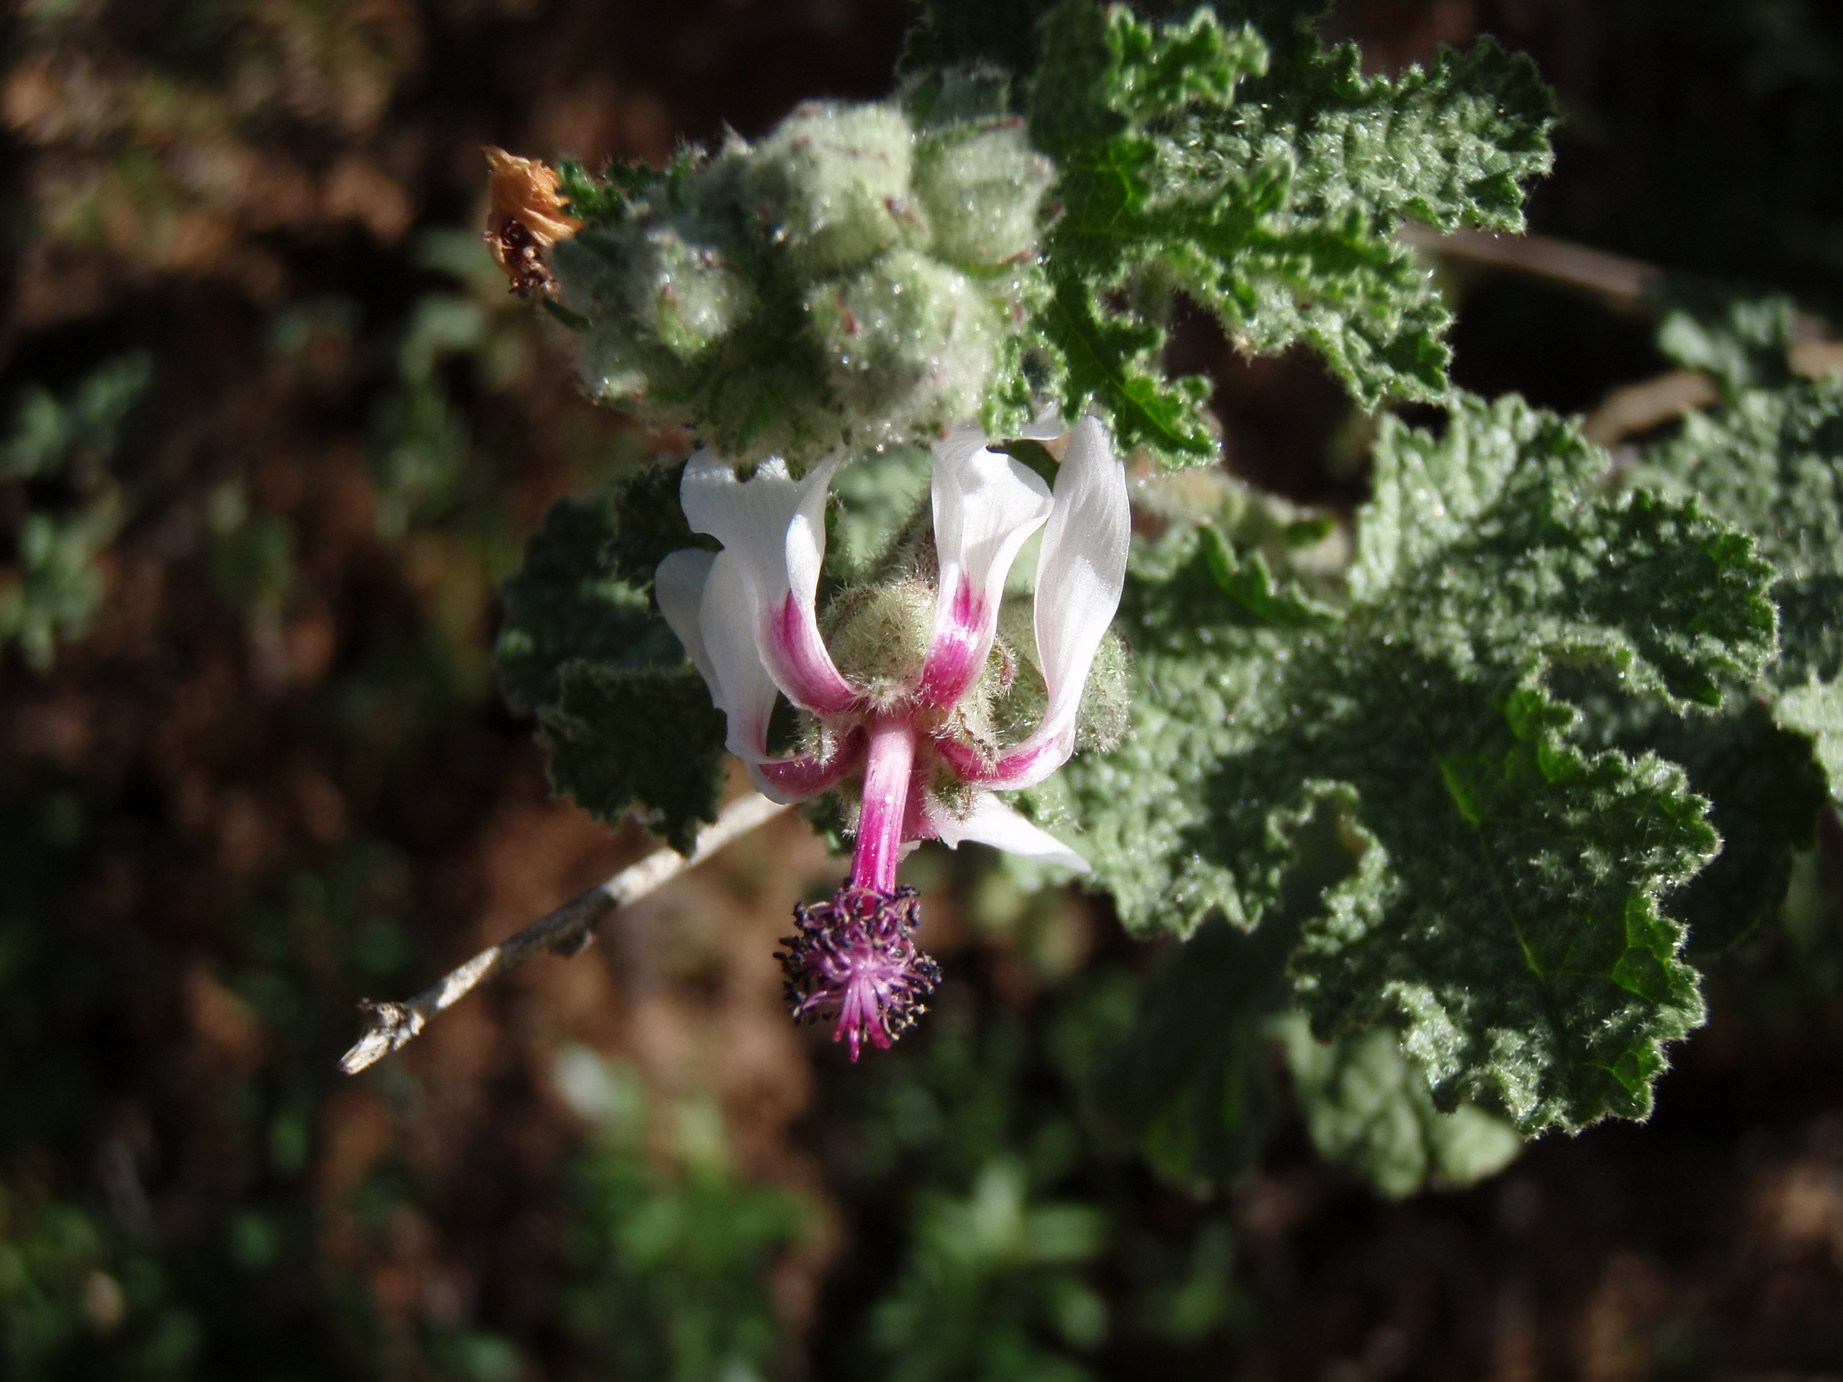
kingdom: Plantae
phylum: Tracheophyta
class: Magnoliopsida
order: Malvales
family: Malvaceae
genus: Anisodontea
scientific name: Anisodontea reflexa
